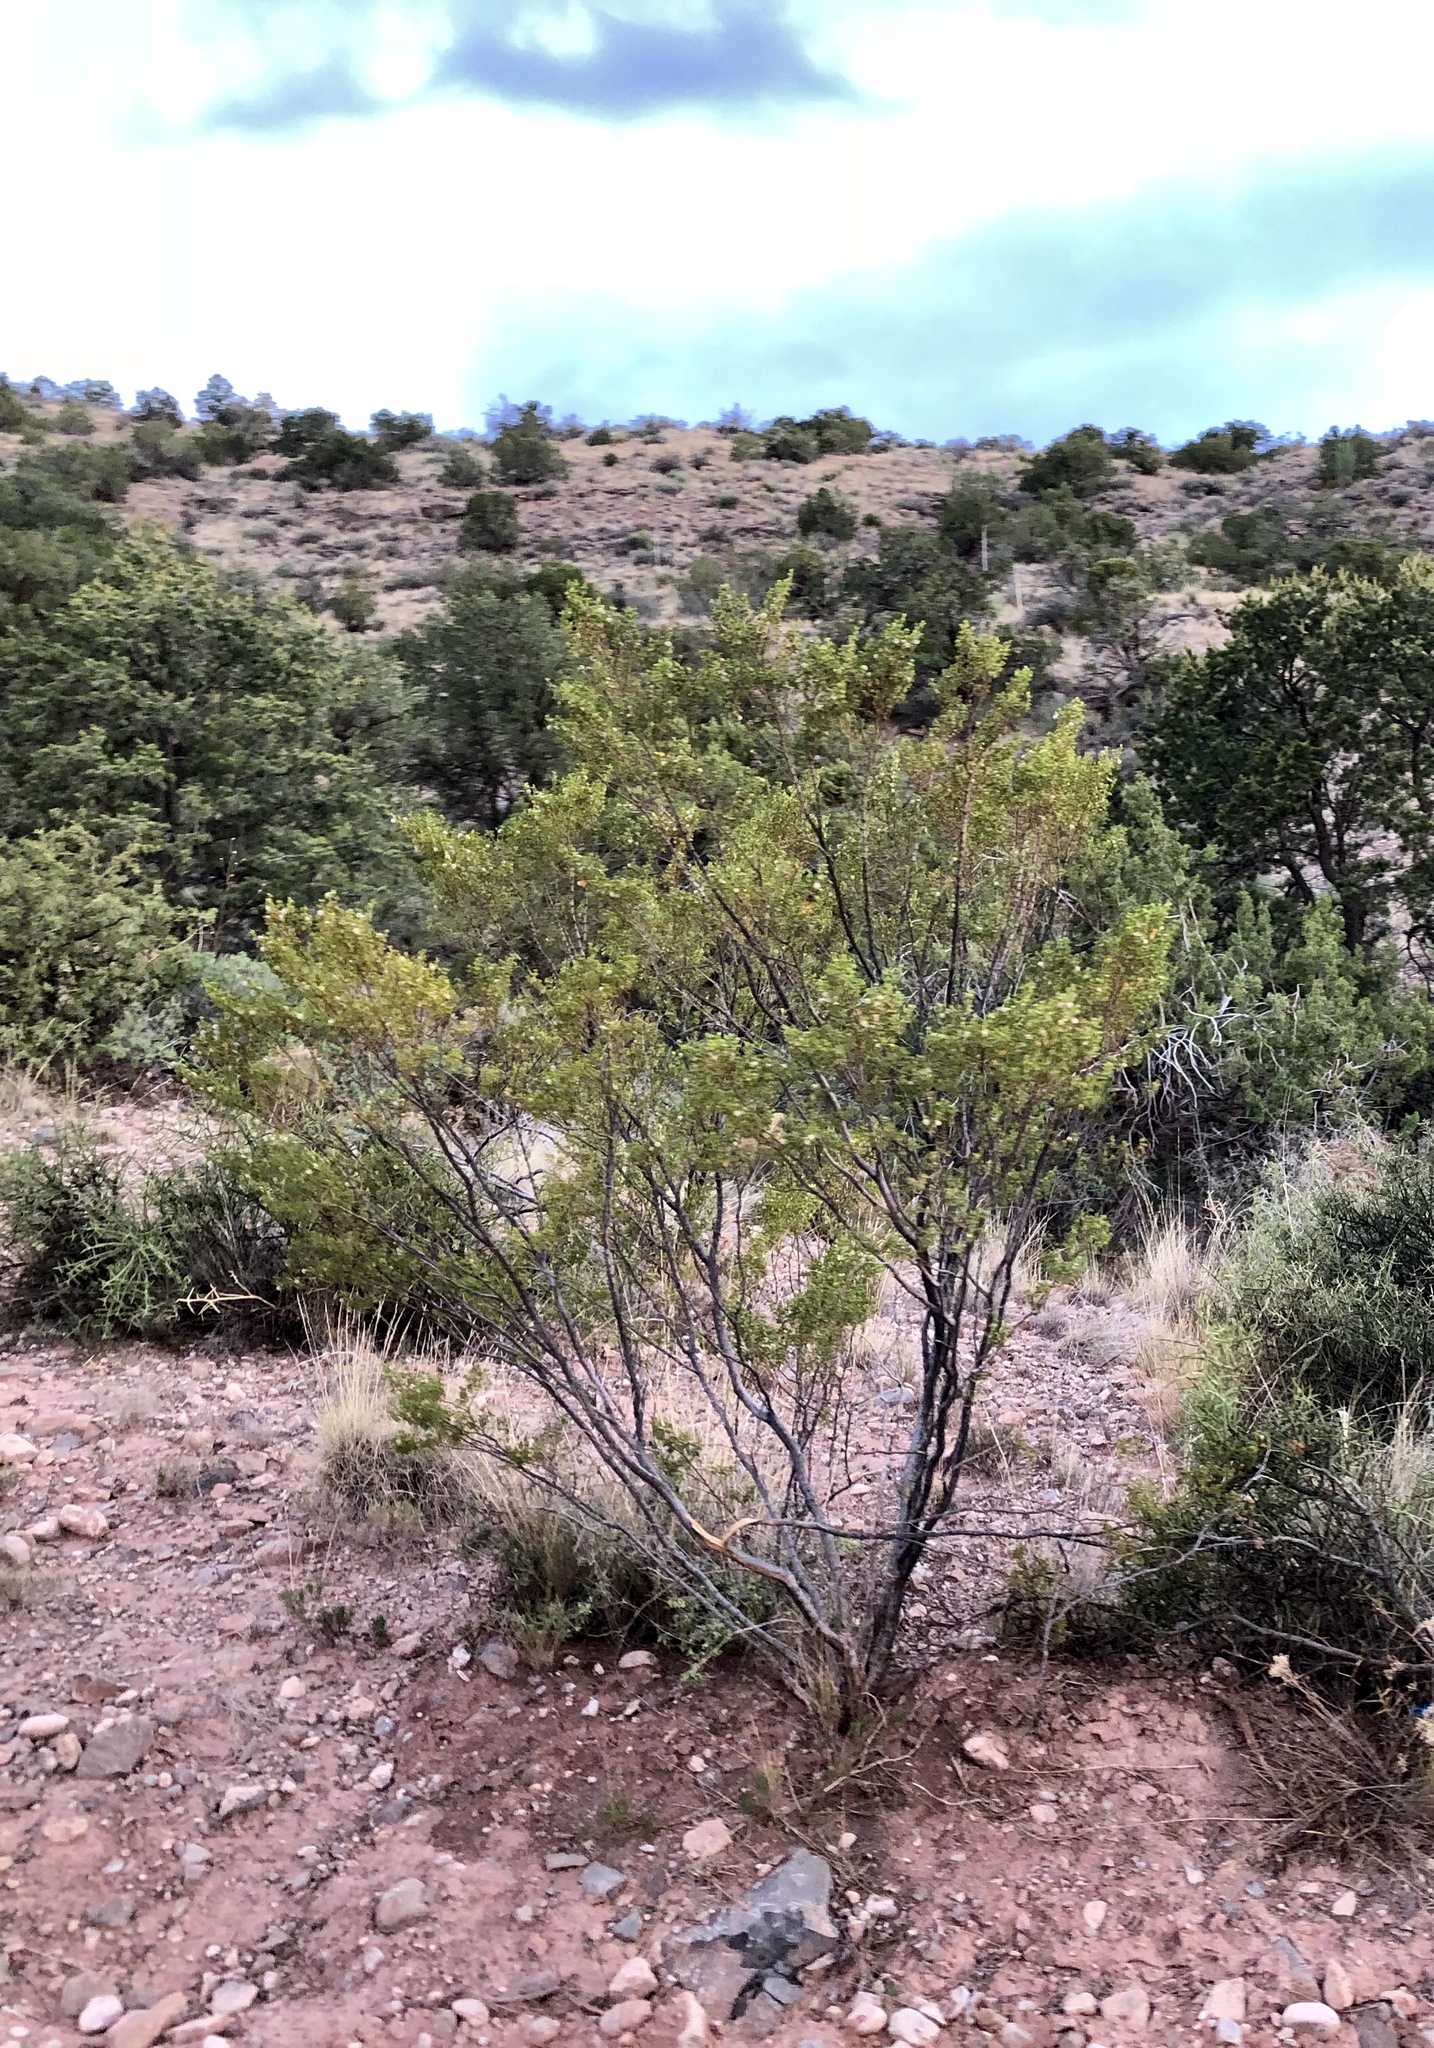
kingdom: Plantae
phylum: Tracheophyta
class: Magnoliopsida
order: Zygophyllales
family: Zygophyllaceae
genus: Larrea
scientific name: Larrea tridentata
